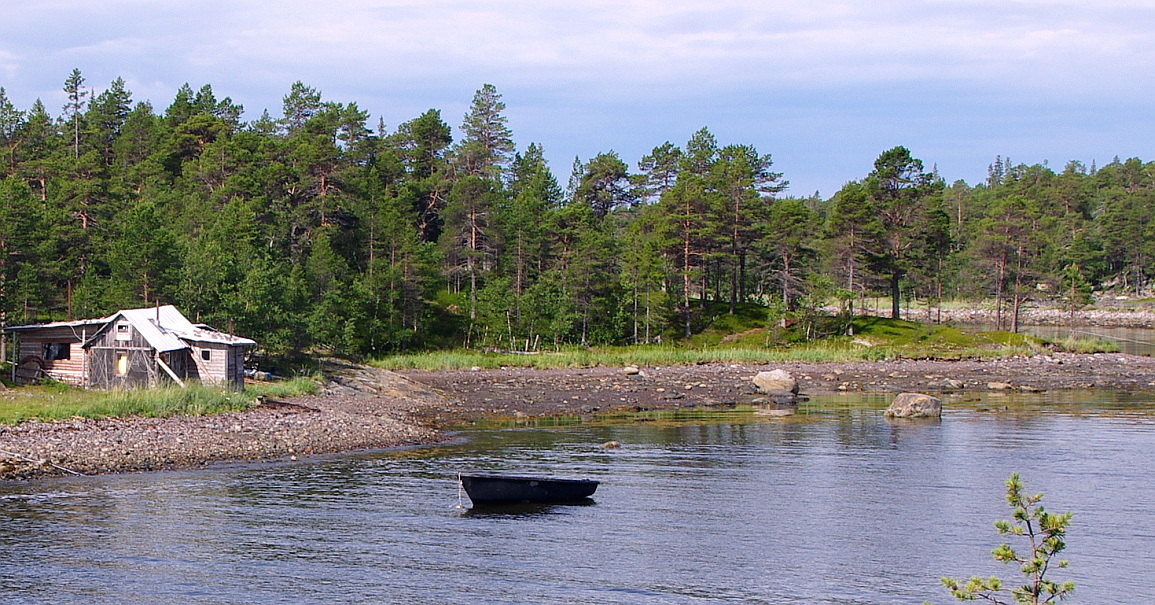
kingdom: Plantae
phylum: Tracheophyta
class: Pinopsida
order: Pinales
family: Pinaceae
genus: Pinus
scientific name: Pinus sylvestris
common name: Scots pine
